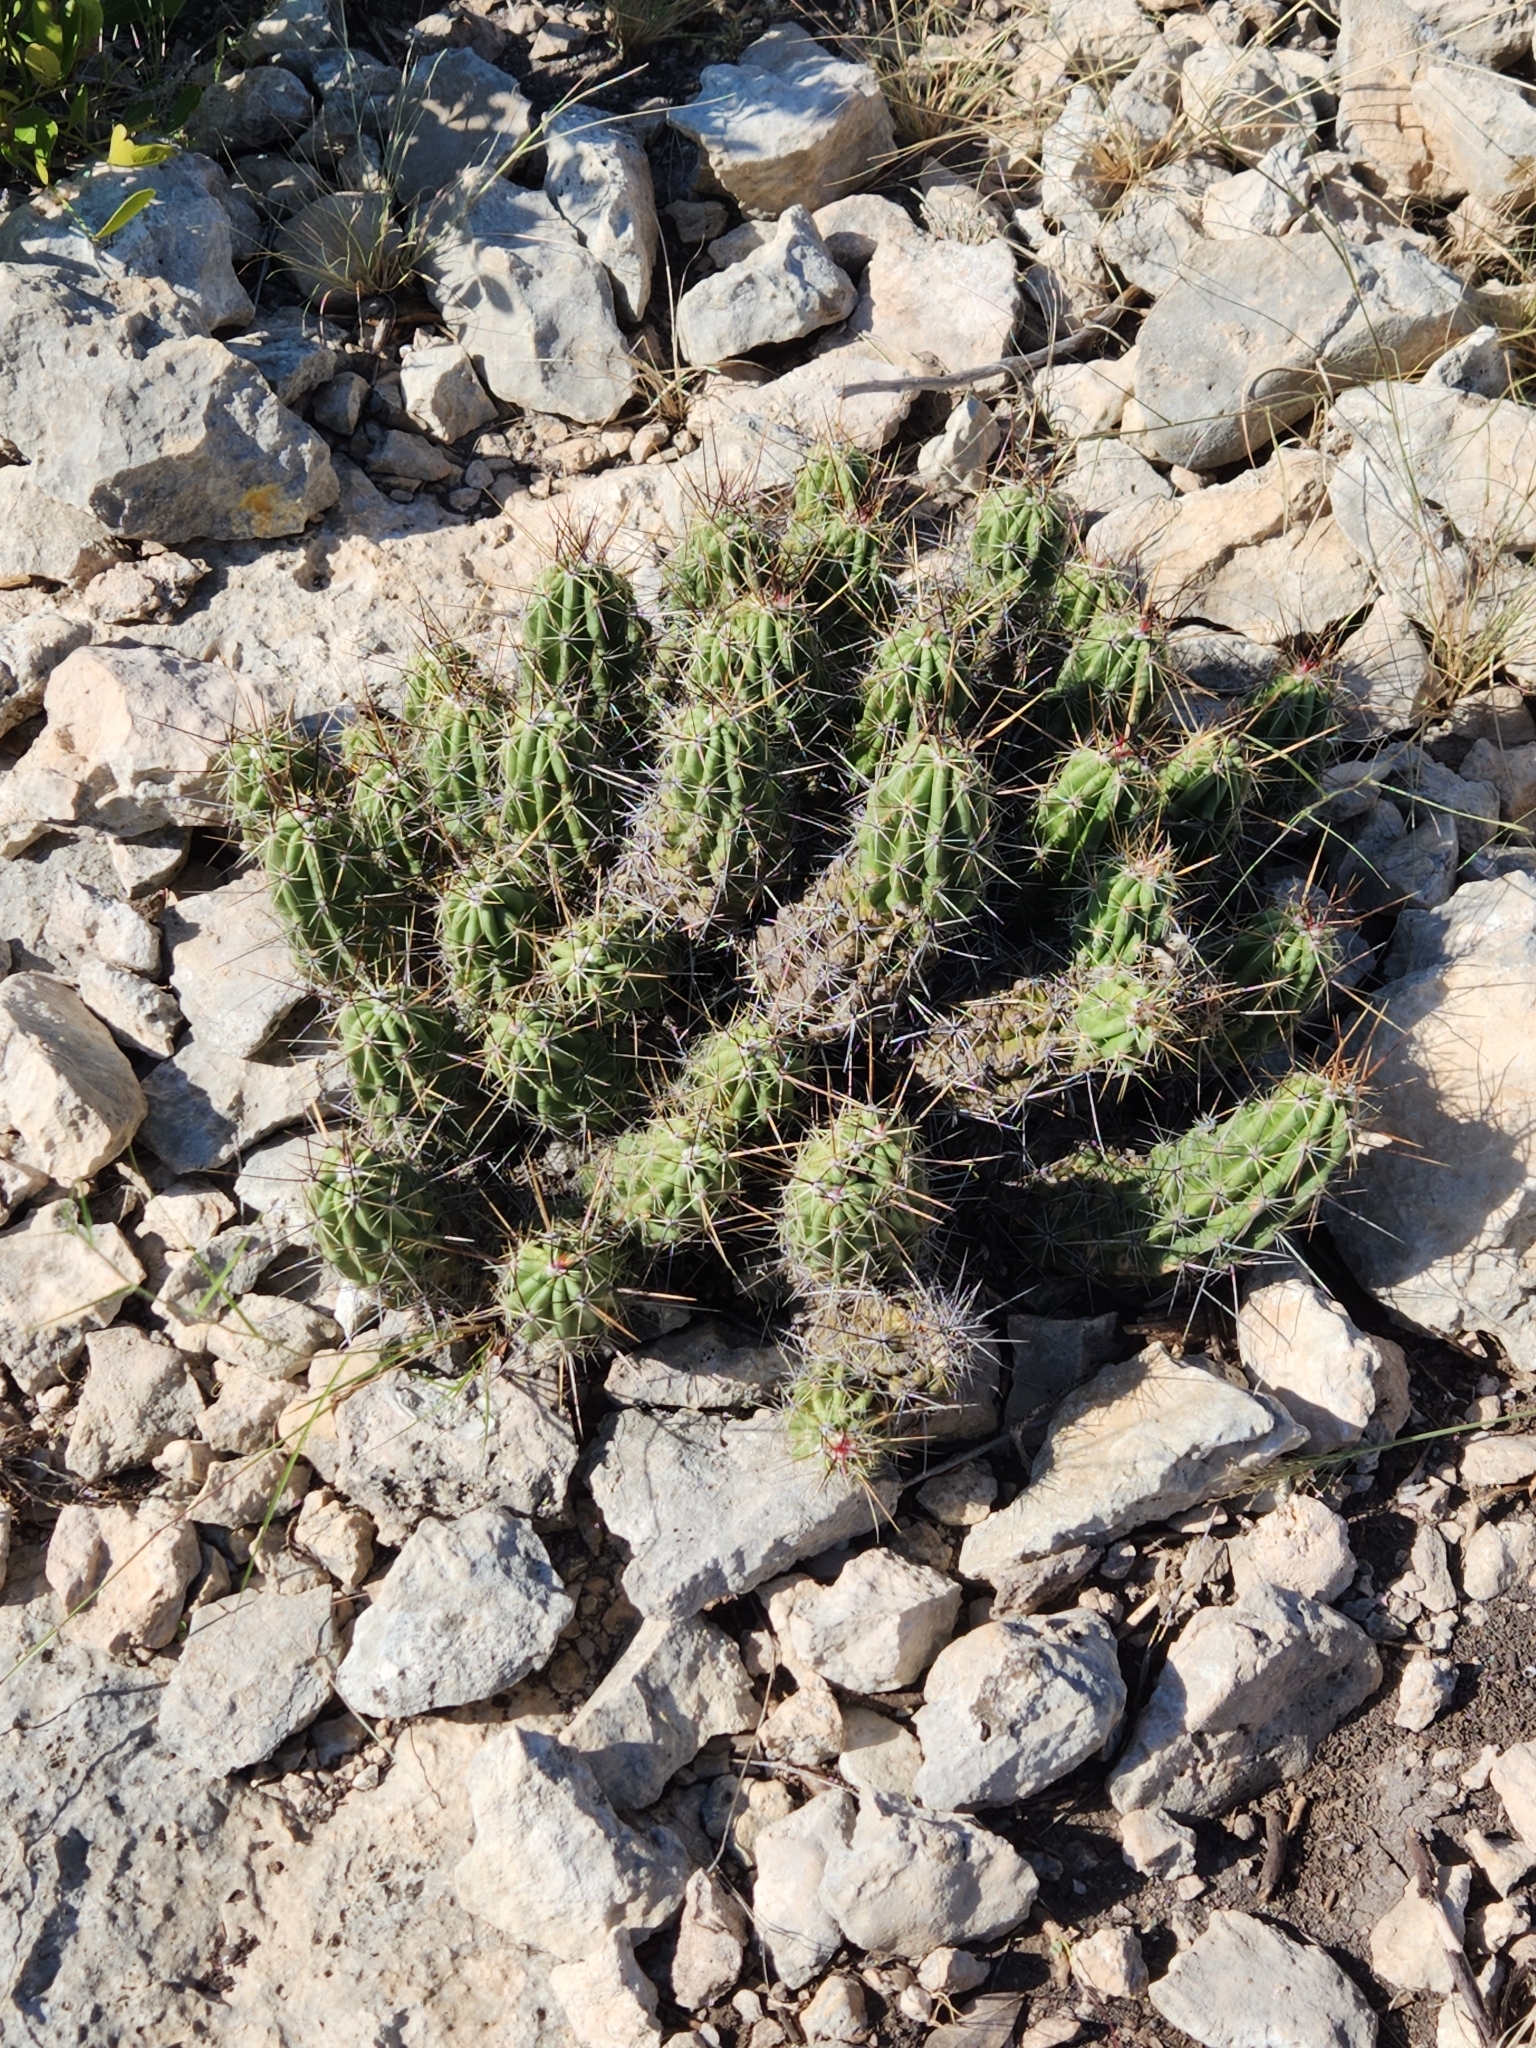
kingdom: Plantae
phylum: Tracheophyta
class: Magnoliopsida
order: Caryophyllales
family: Cactaceae
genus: Echinocereus
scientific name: Echinocereus enneacanthus
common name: Pitaya
